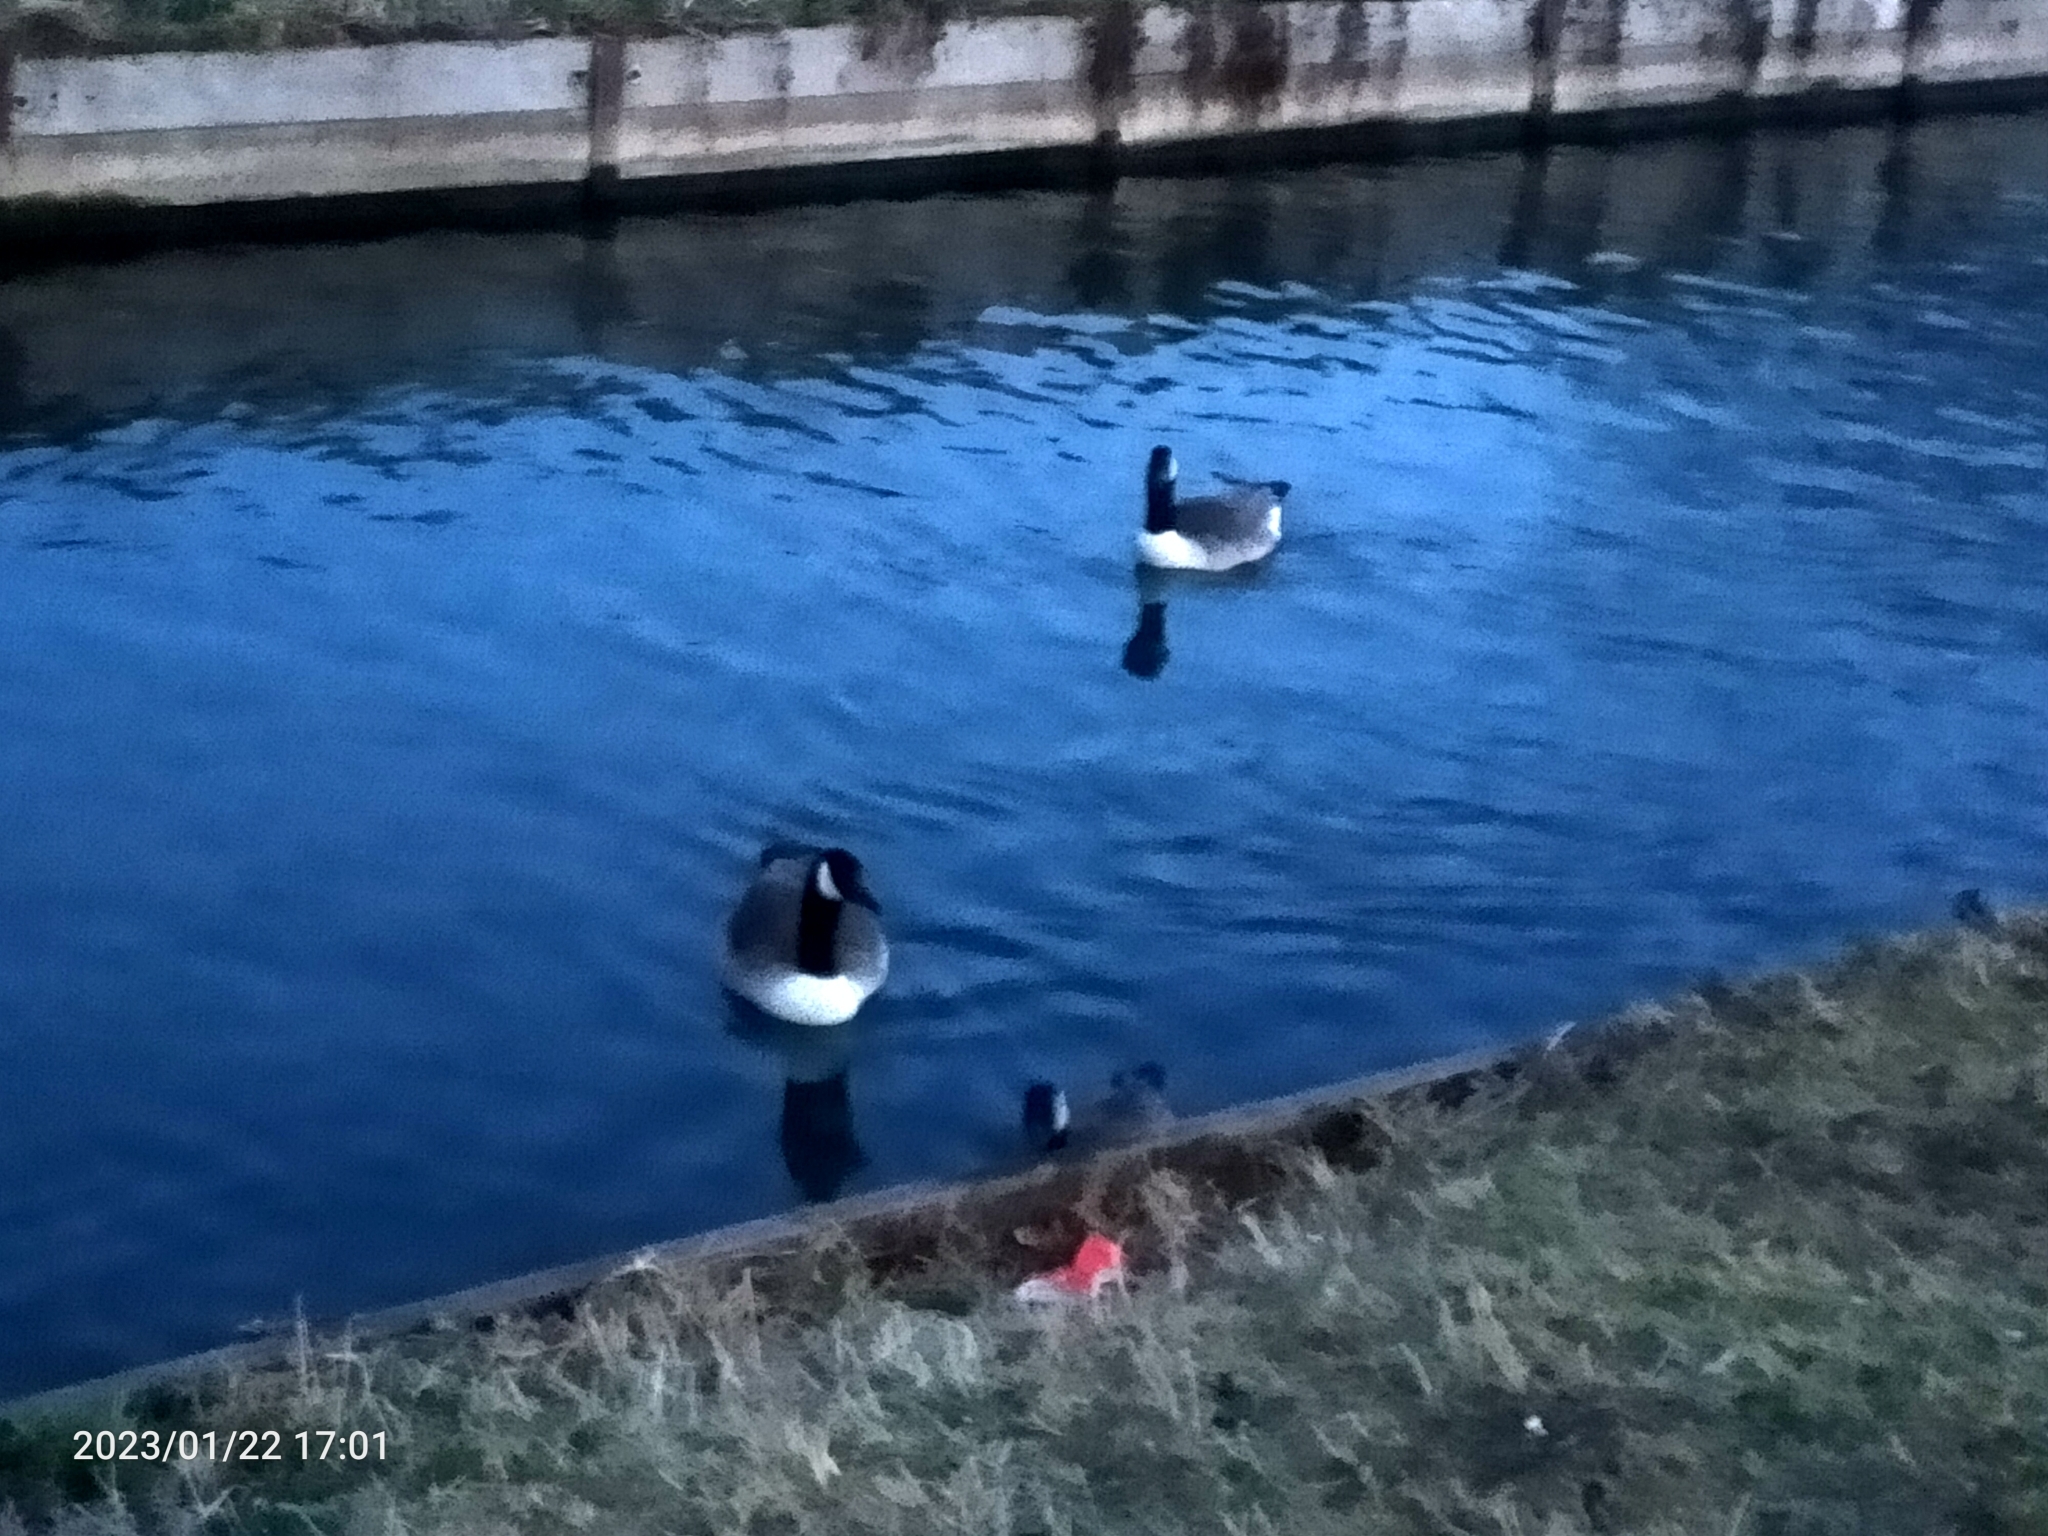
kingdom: Animalia
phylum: Chordata
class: Aves
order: Anseriformes
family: Anatidae
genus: Branta
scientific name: Branta canadensis
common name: Canada goose
